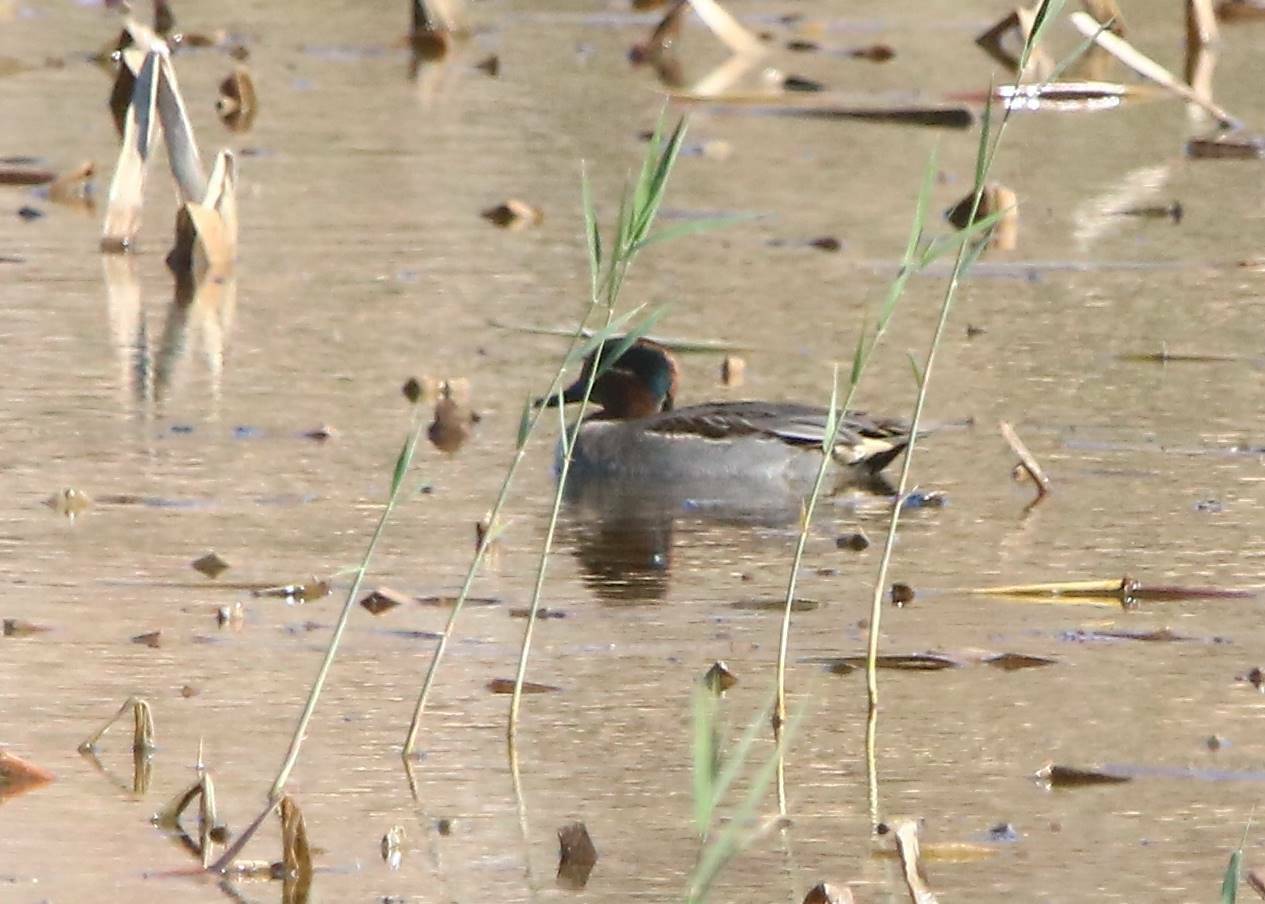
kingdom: Animalia
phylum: Chordata
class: Aves
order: Anseriformes
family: Anatidae
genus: Anas
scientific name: Anas crecca
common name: Eurasian teal
